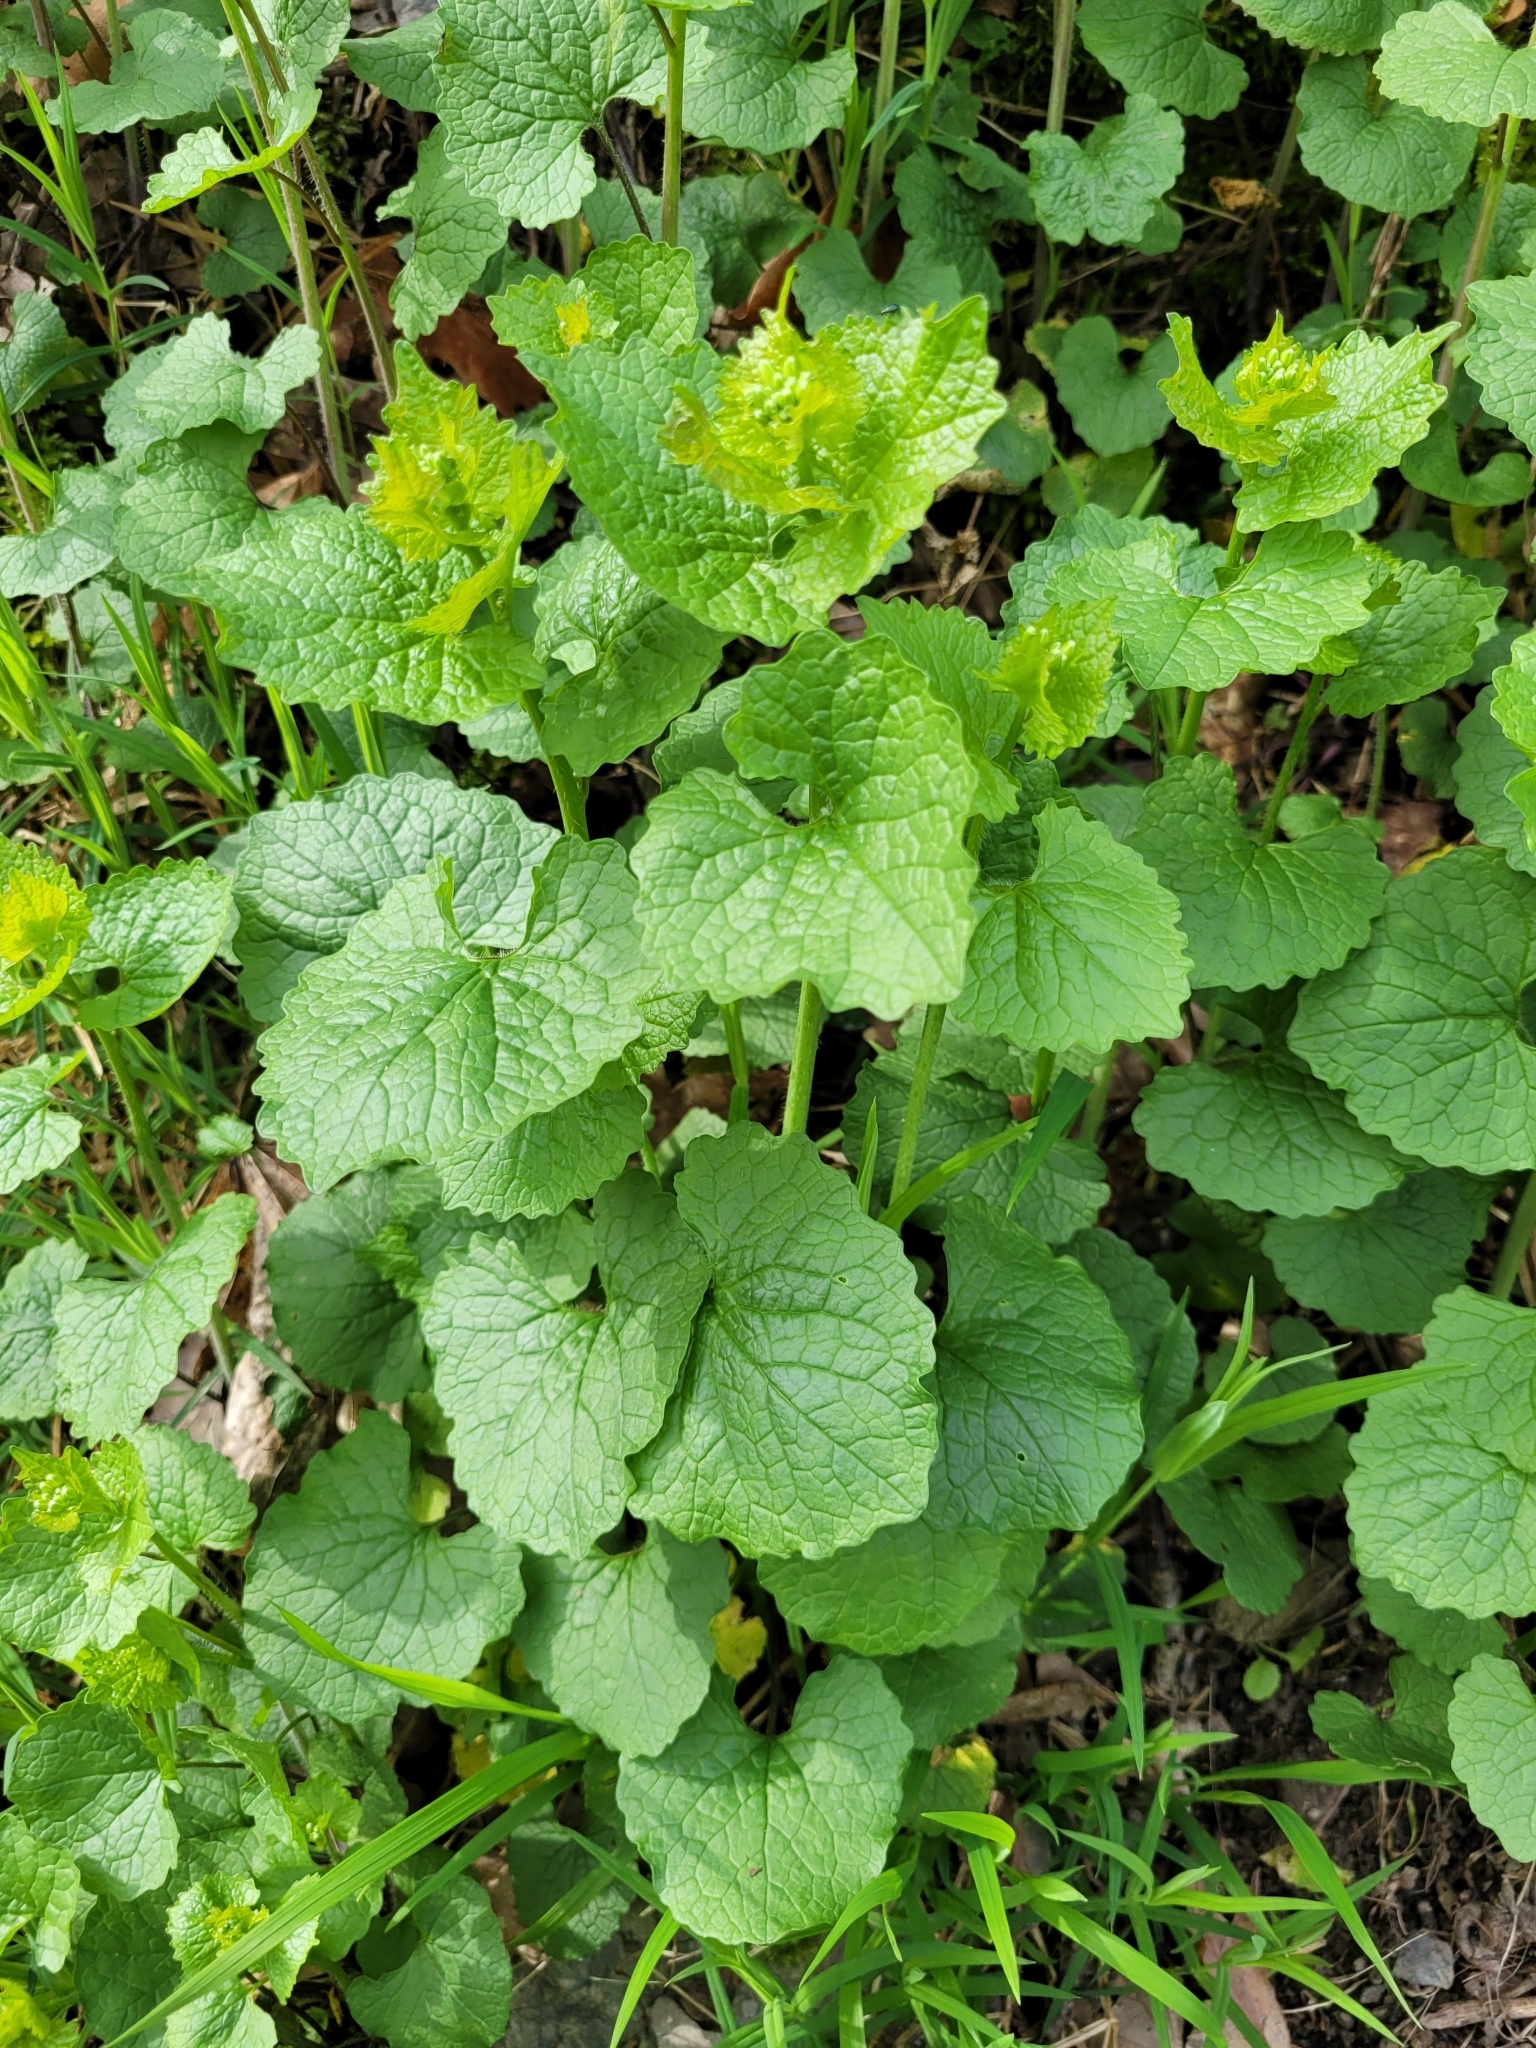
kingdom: Plantae
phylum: Tracheophyta
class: Magnoliopsida
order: Brassicales
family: Brassicaceae
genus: Alliaria
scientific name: Alliaria petiolata
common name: Garlic mustard
